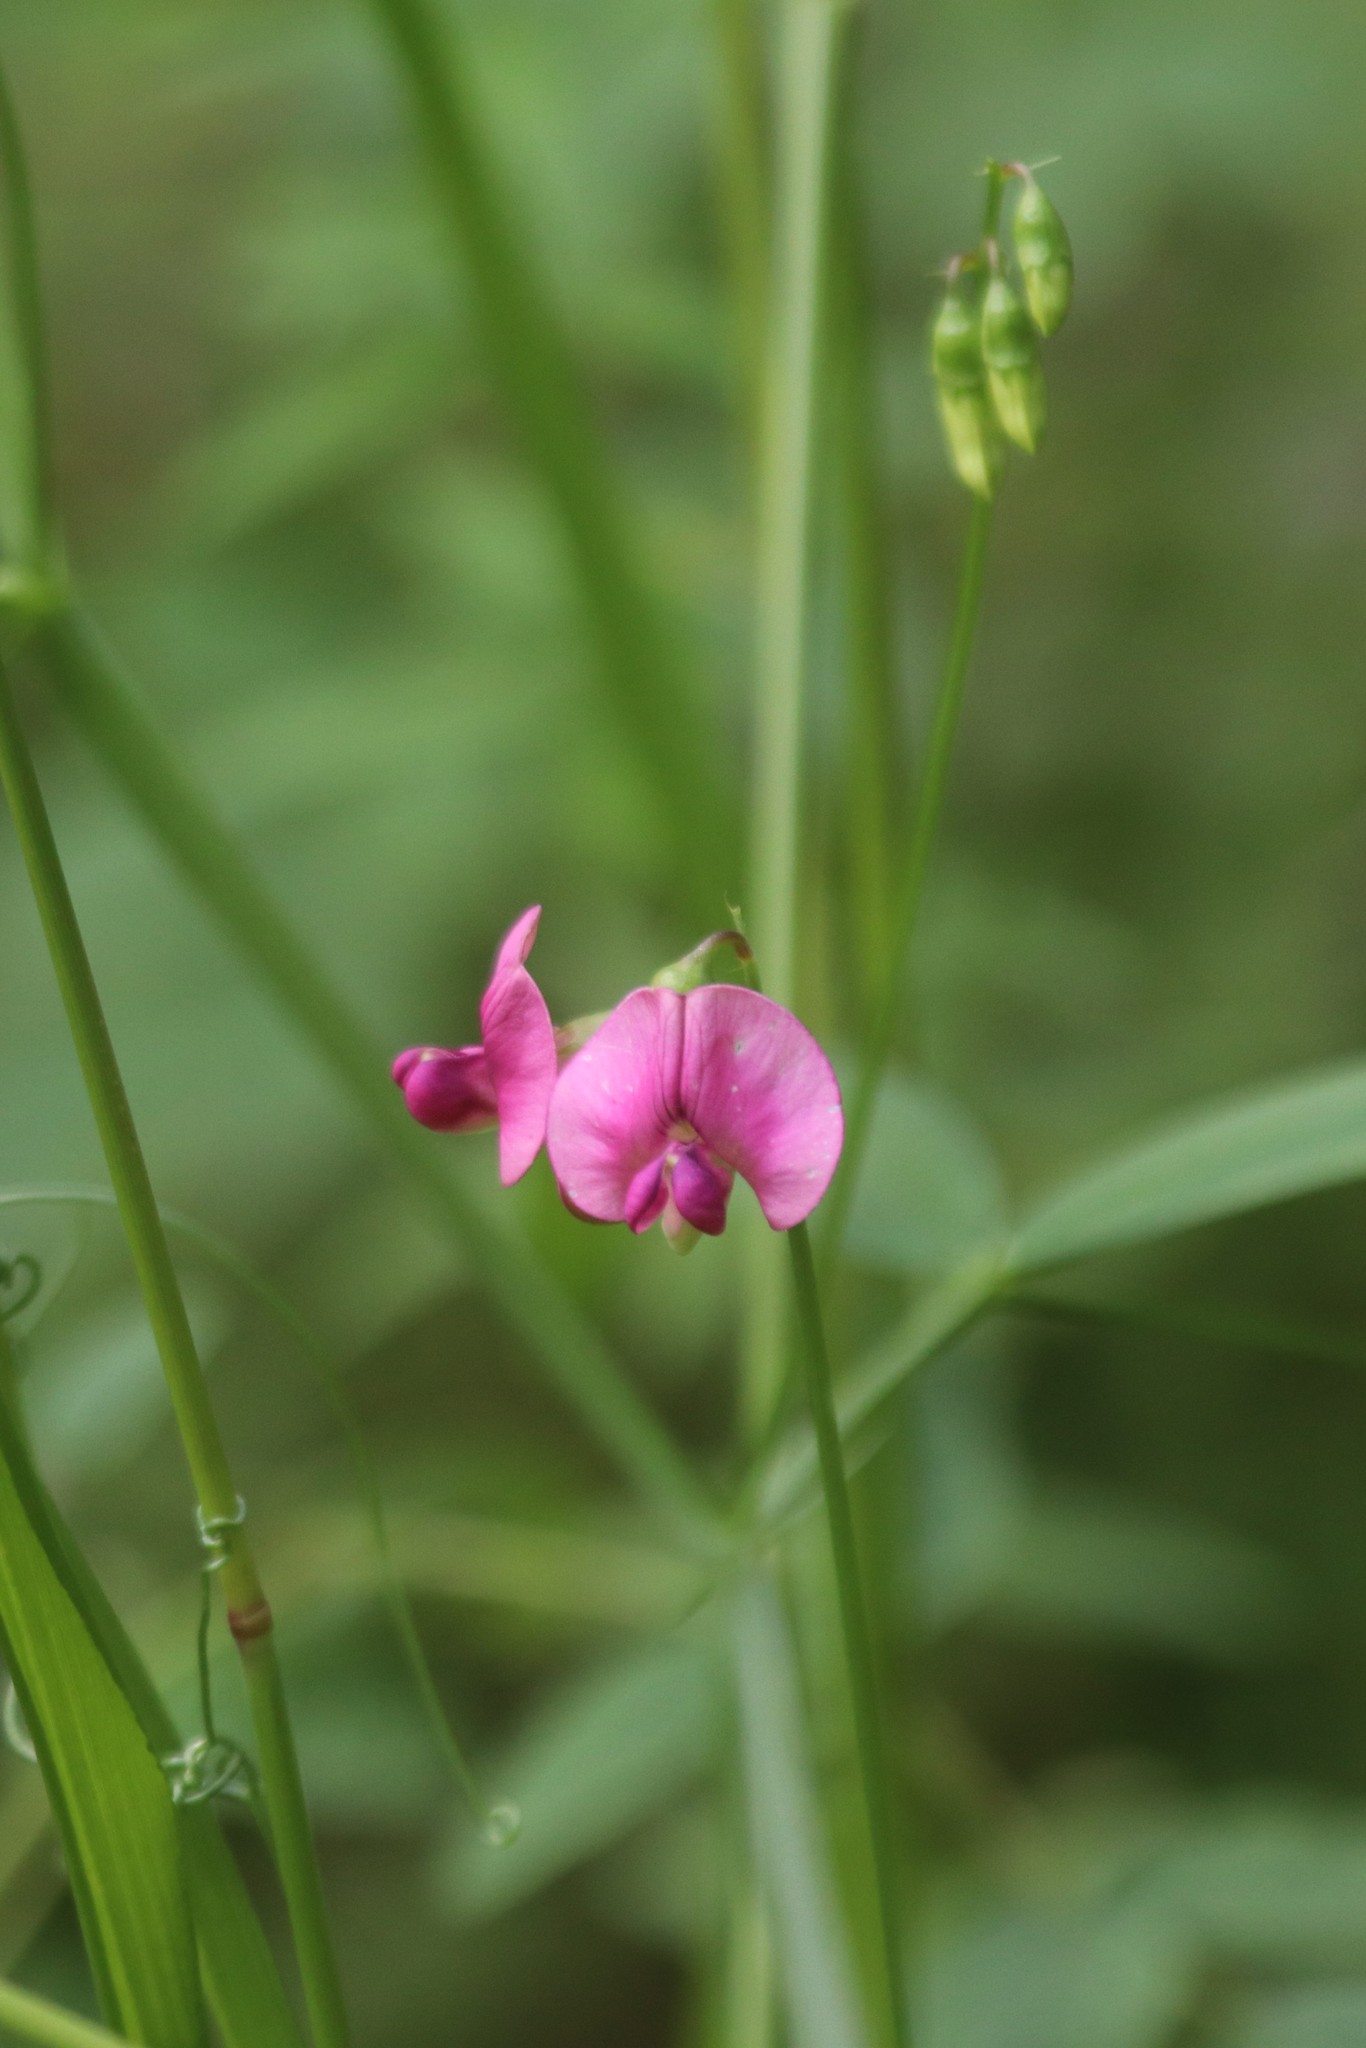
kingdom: Plantae
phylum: Tracheophyta
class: Magnoliopsida
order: Fabales
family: Fabaceae
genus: Lathyrus
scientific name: Lathyrus sylvestris
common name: Flat pea
